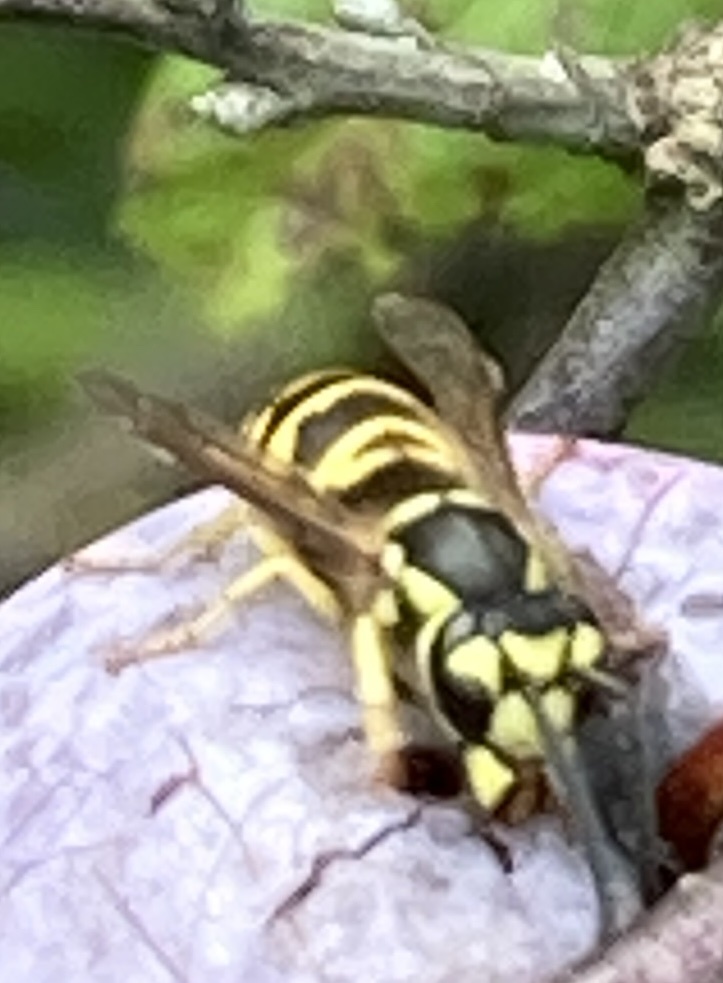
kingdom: Animalia
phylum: Arthropoda
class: Insecta
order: Hymenoptera
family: Vespidae
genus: Vespula
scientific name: Vespula maculifrons
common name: Eastern yellowjacket
